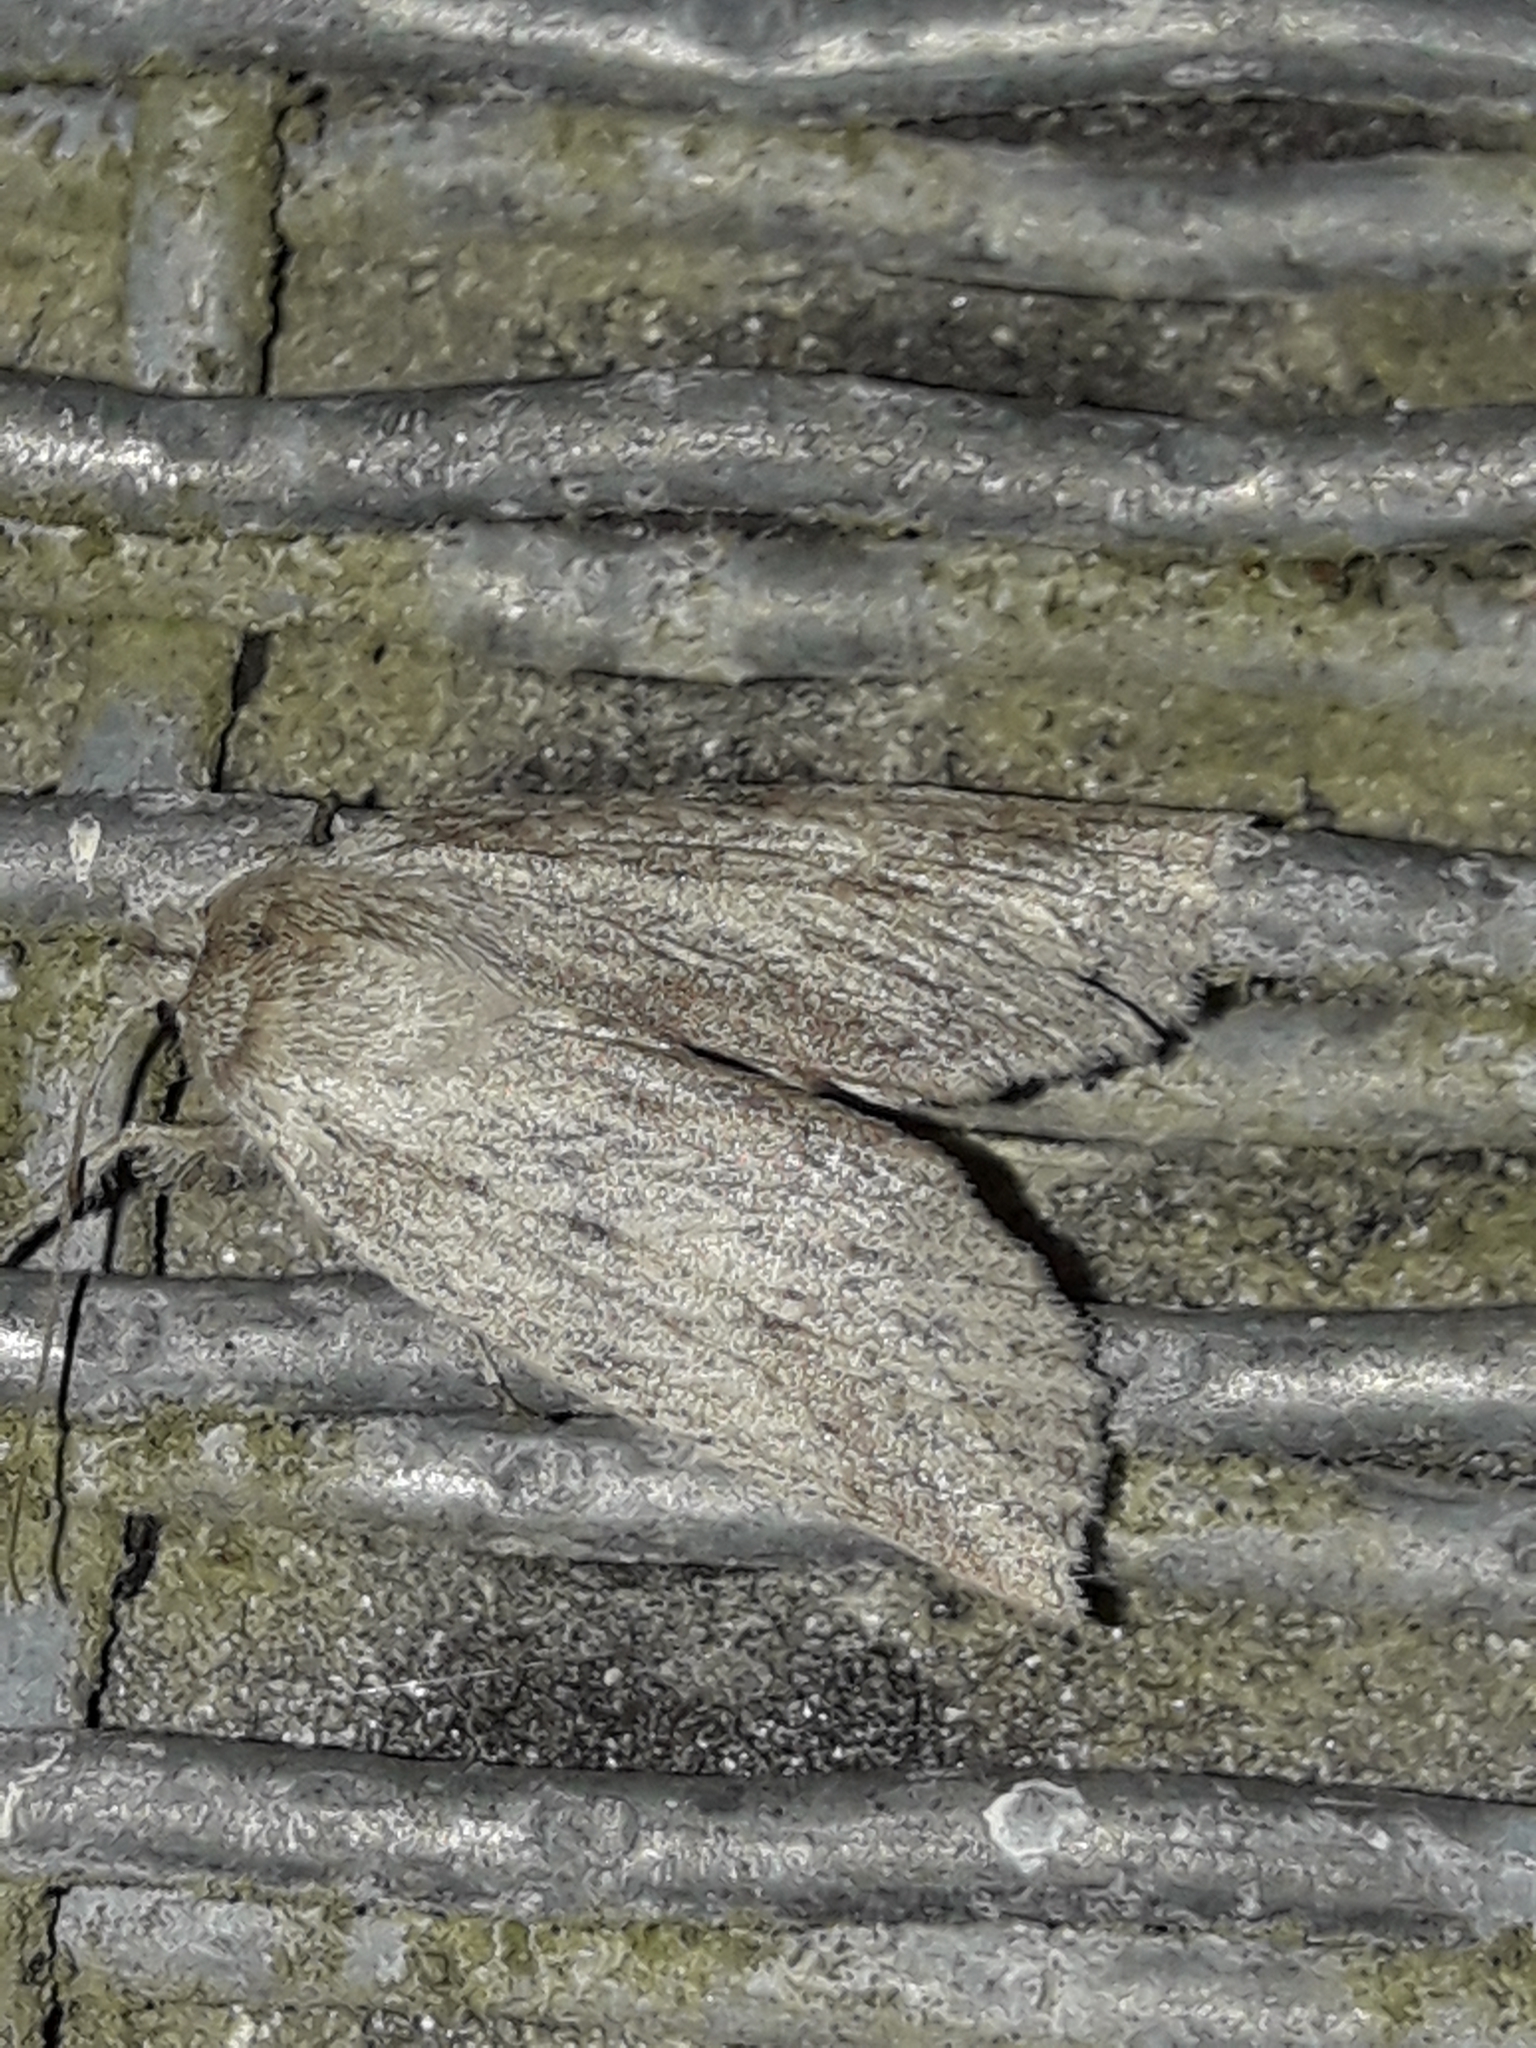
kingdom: Animalia
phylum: Arthropoda
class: Insecta
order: Lepidoptera
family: Geometridae
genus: Declana
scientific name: Declana leptomera
